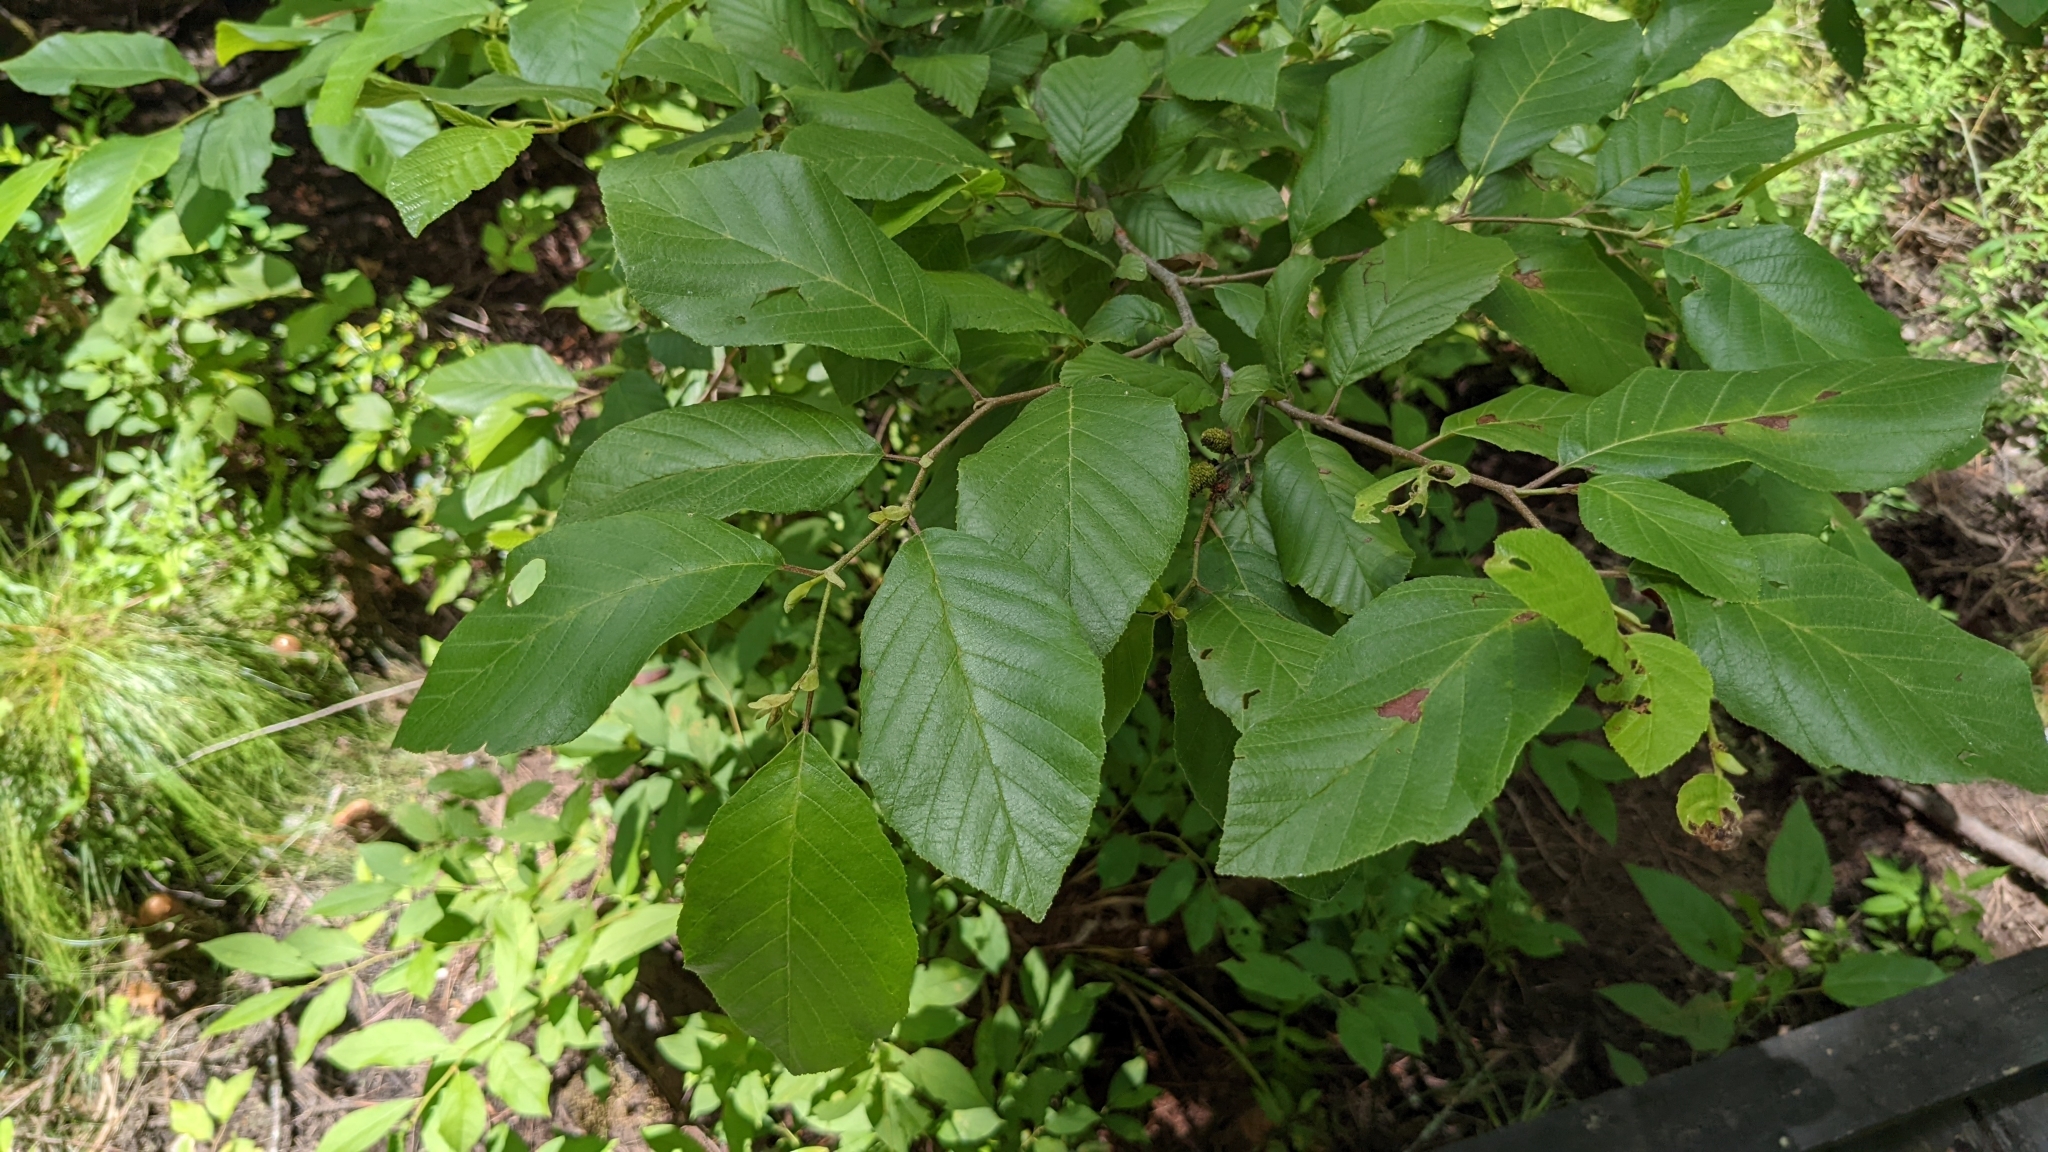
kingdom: Plantae
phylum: Tracheophyta
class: Magnoliopsida
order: Fagales
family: Betulaceae
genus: Alnus
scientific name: Alnus serrulata
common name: Hazel alder
